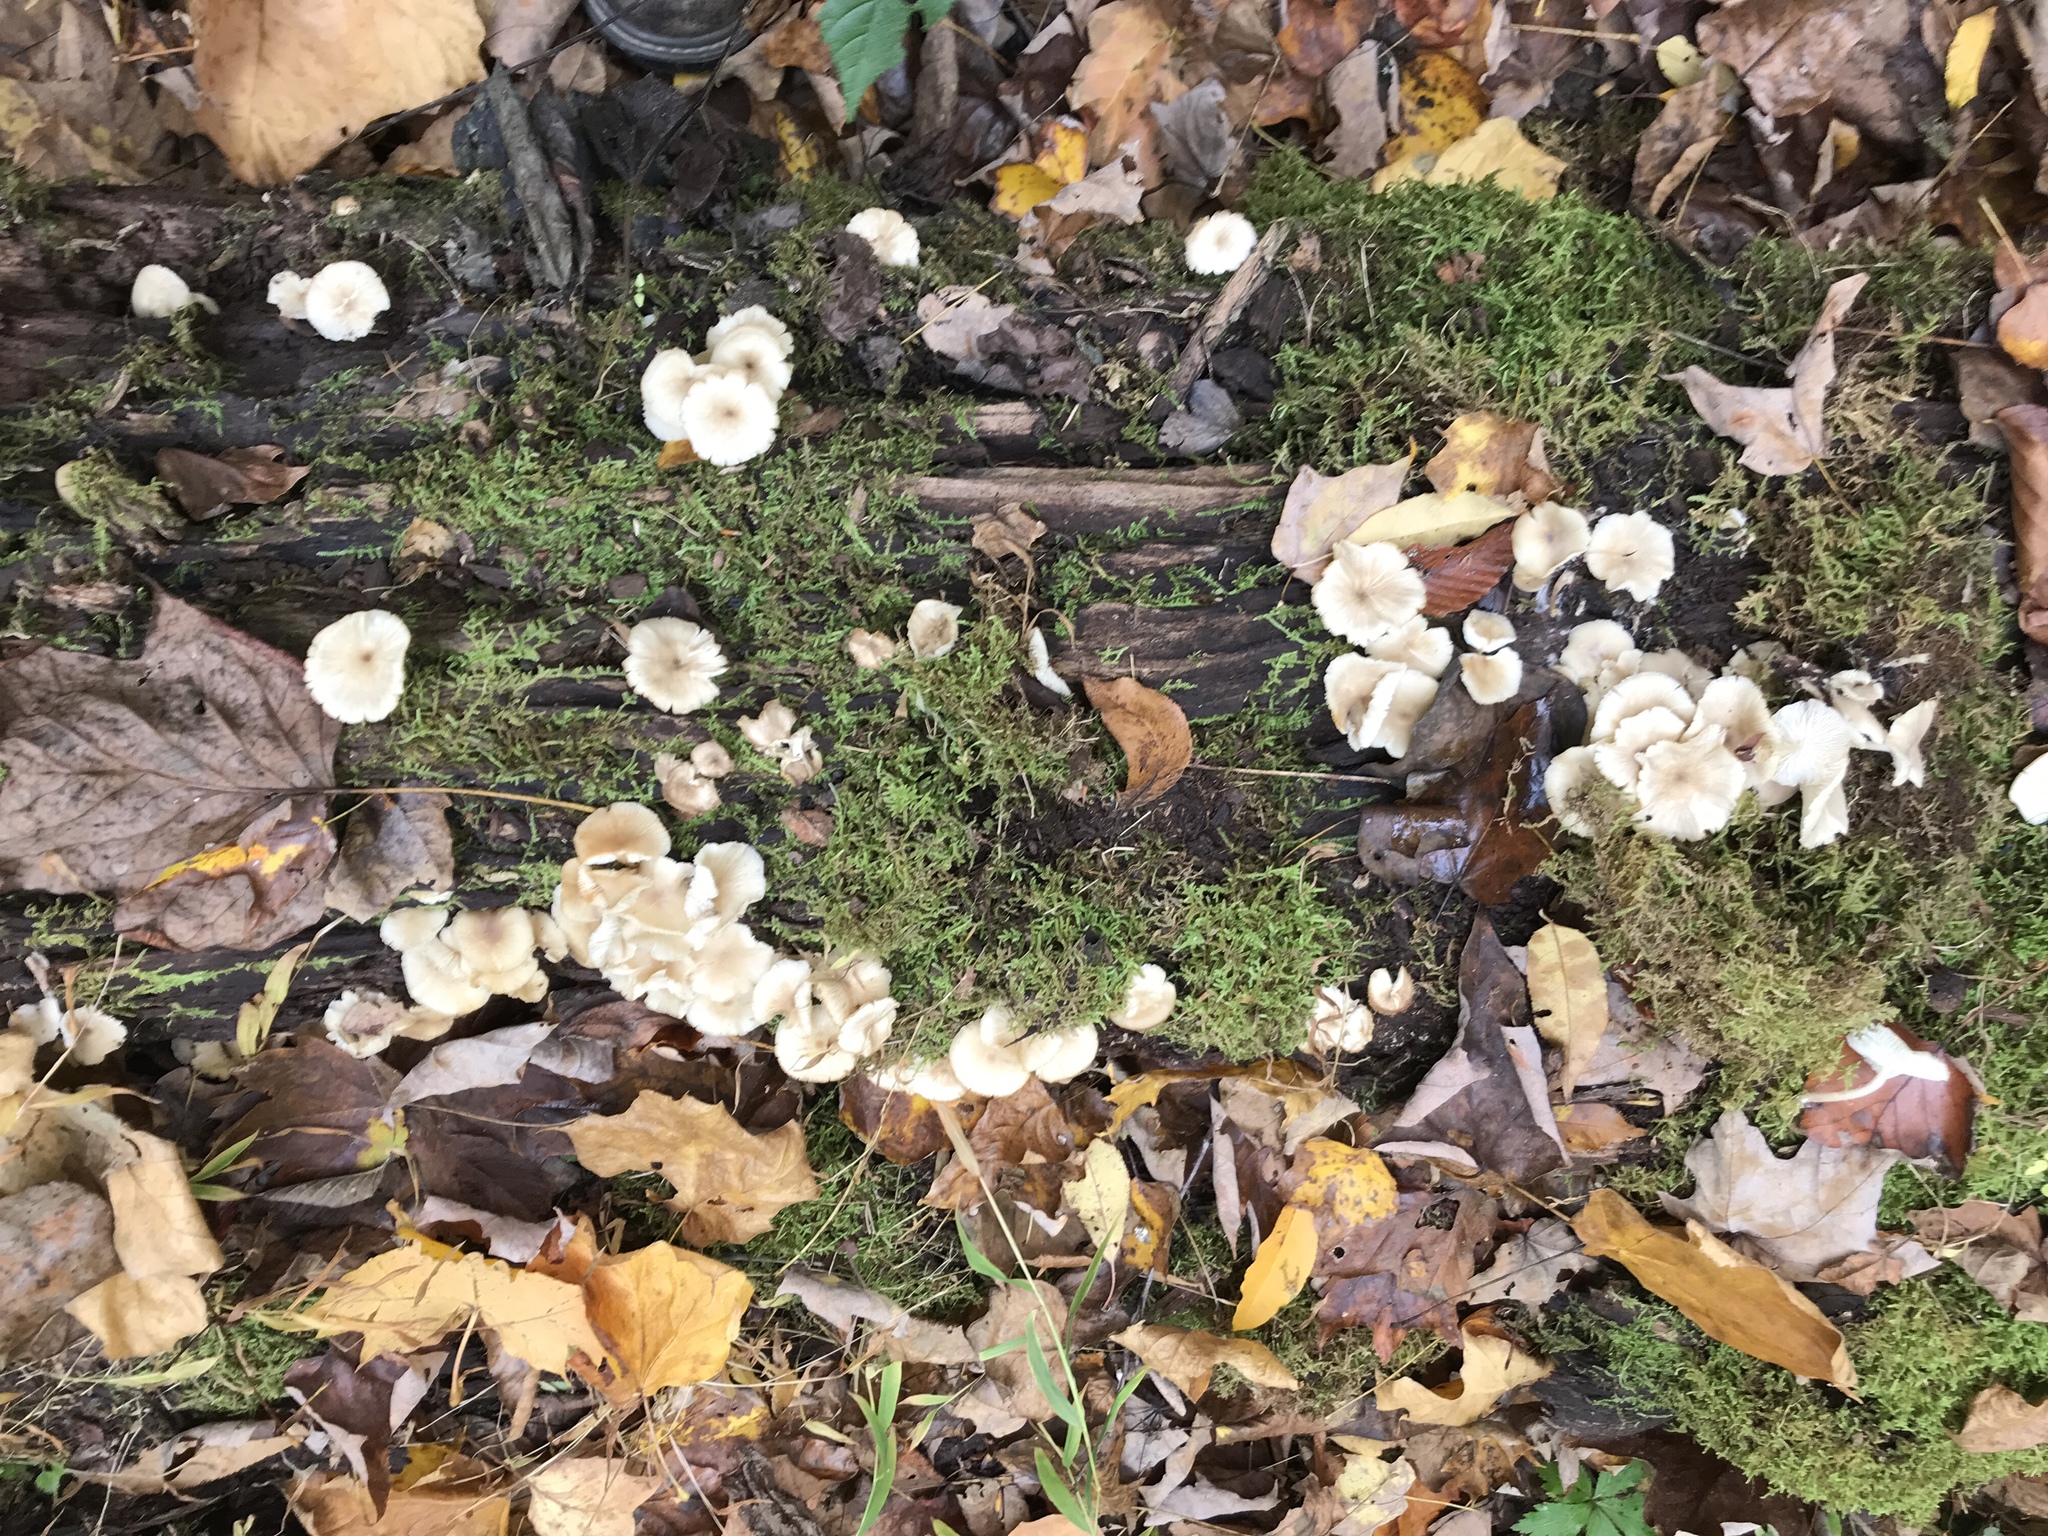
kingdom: Fungi
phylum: Basidiomycota
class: Agaricomycetes
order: Agaricales
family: Marasmiaceae
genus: Clitocybula
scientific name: Clitocybula oculus
